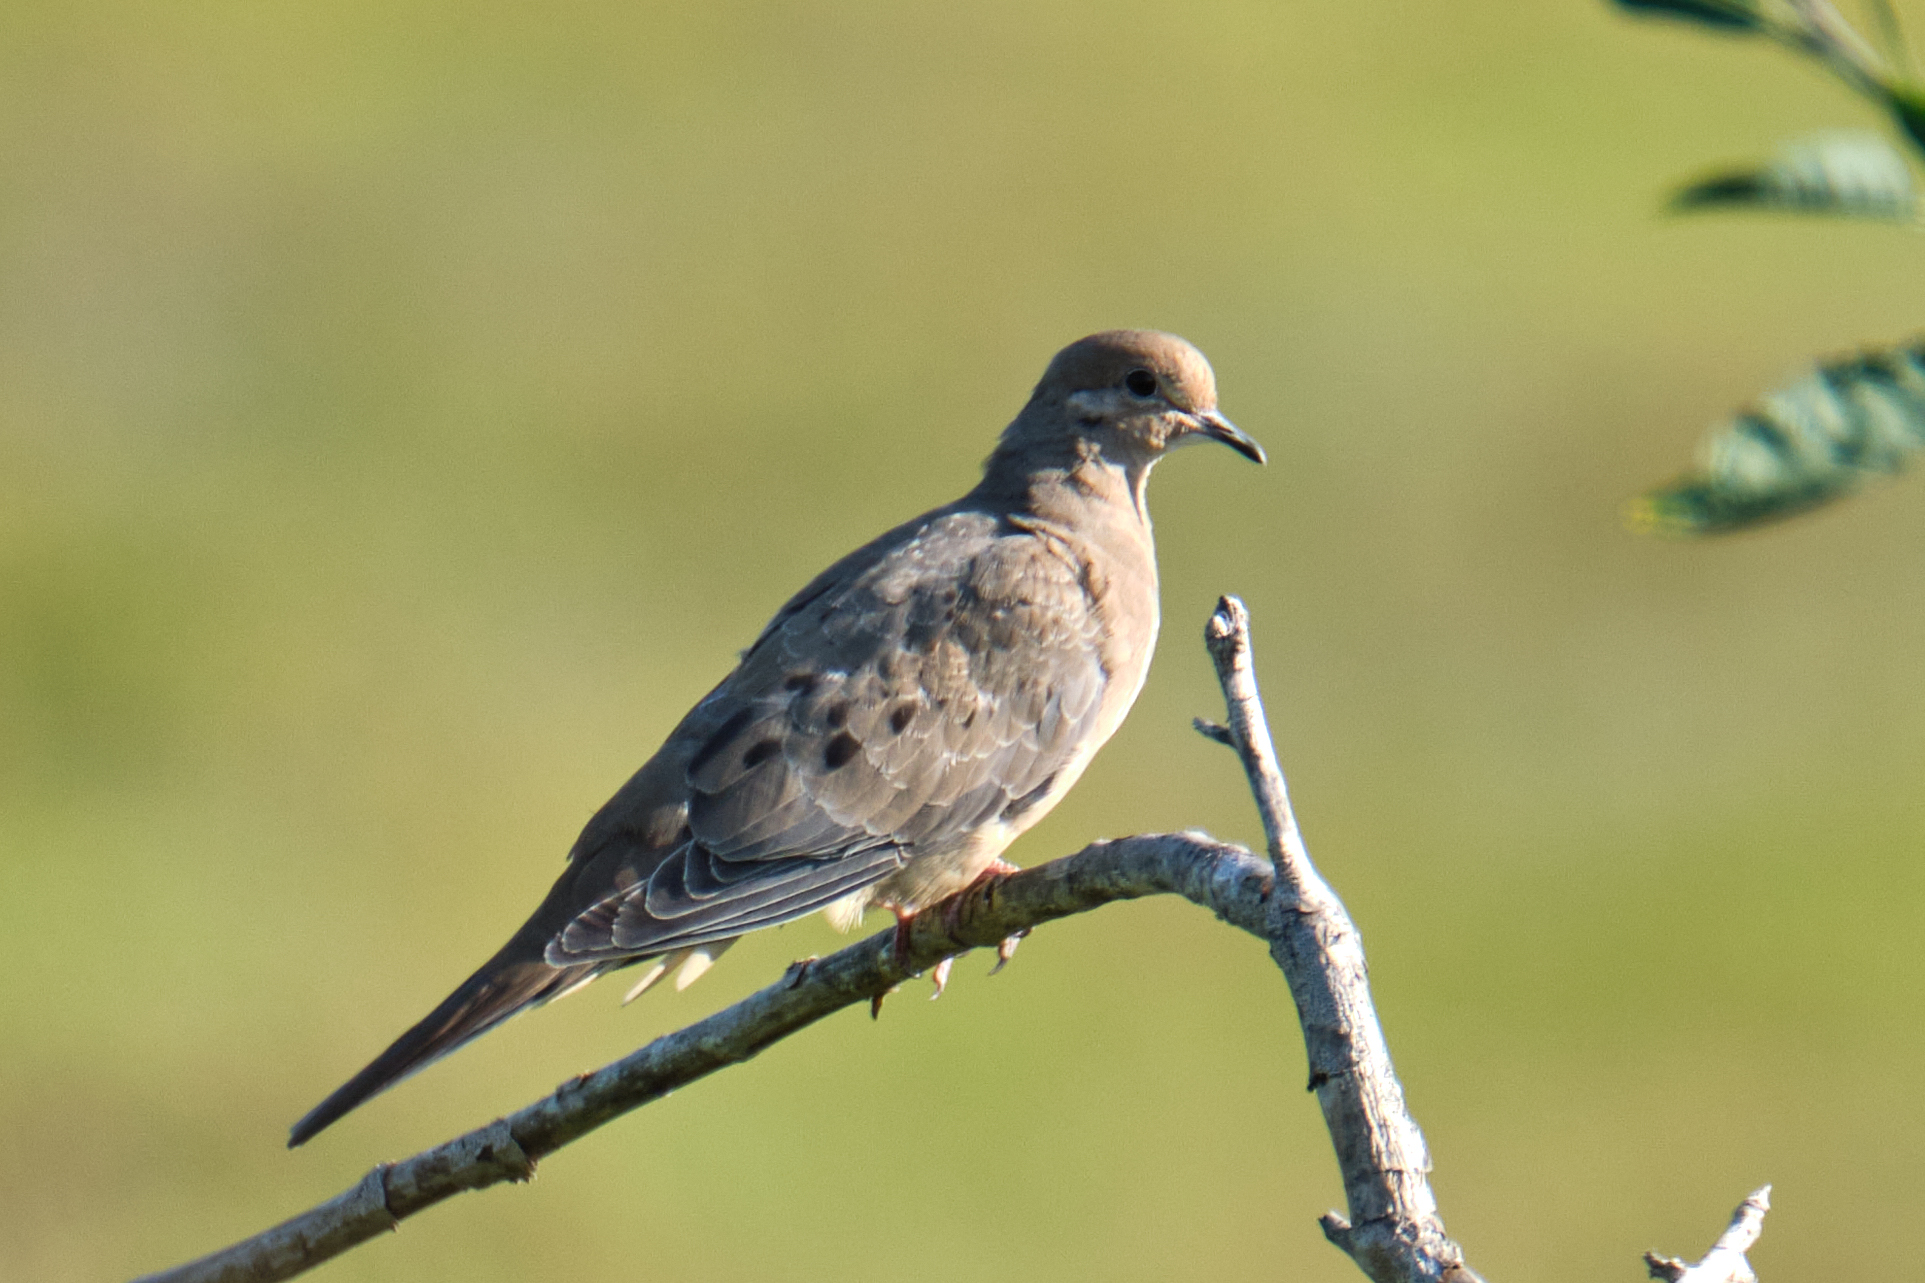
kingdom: Animalia
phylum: Chordata
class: Aves
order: Columbiformes
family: Columbidae
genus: Zenaida
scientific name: Zenaida macroura
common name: Mourning dove
